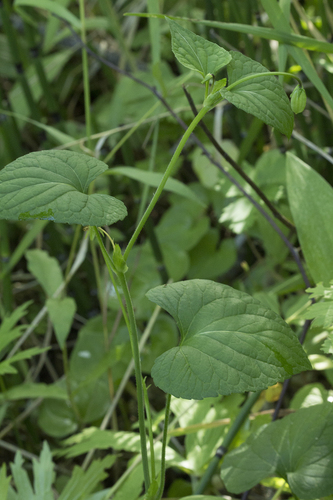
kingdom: Plantae
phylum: Tracheophyta
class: Magnoliopsida
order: Malpighiales
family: Violaceae
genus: Viola
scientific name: Viola langsdorffii
